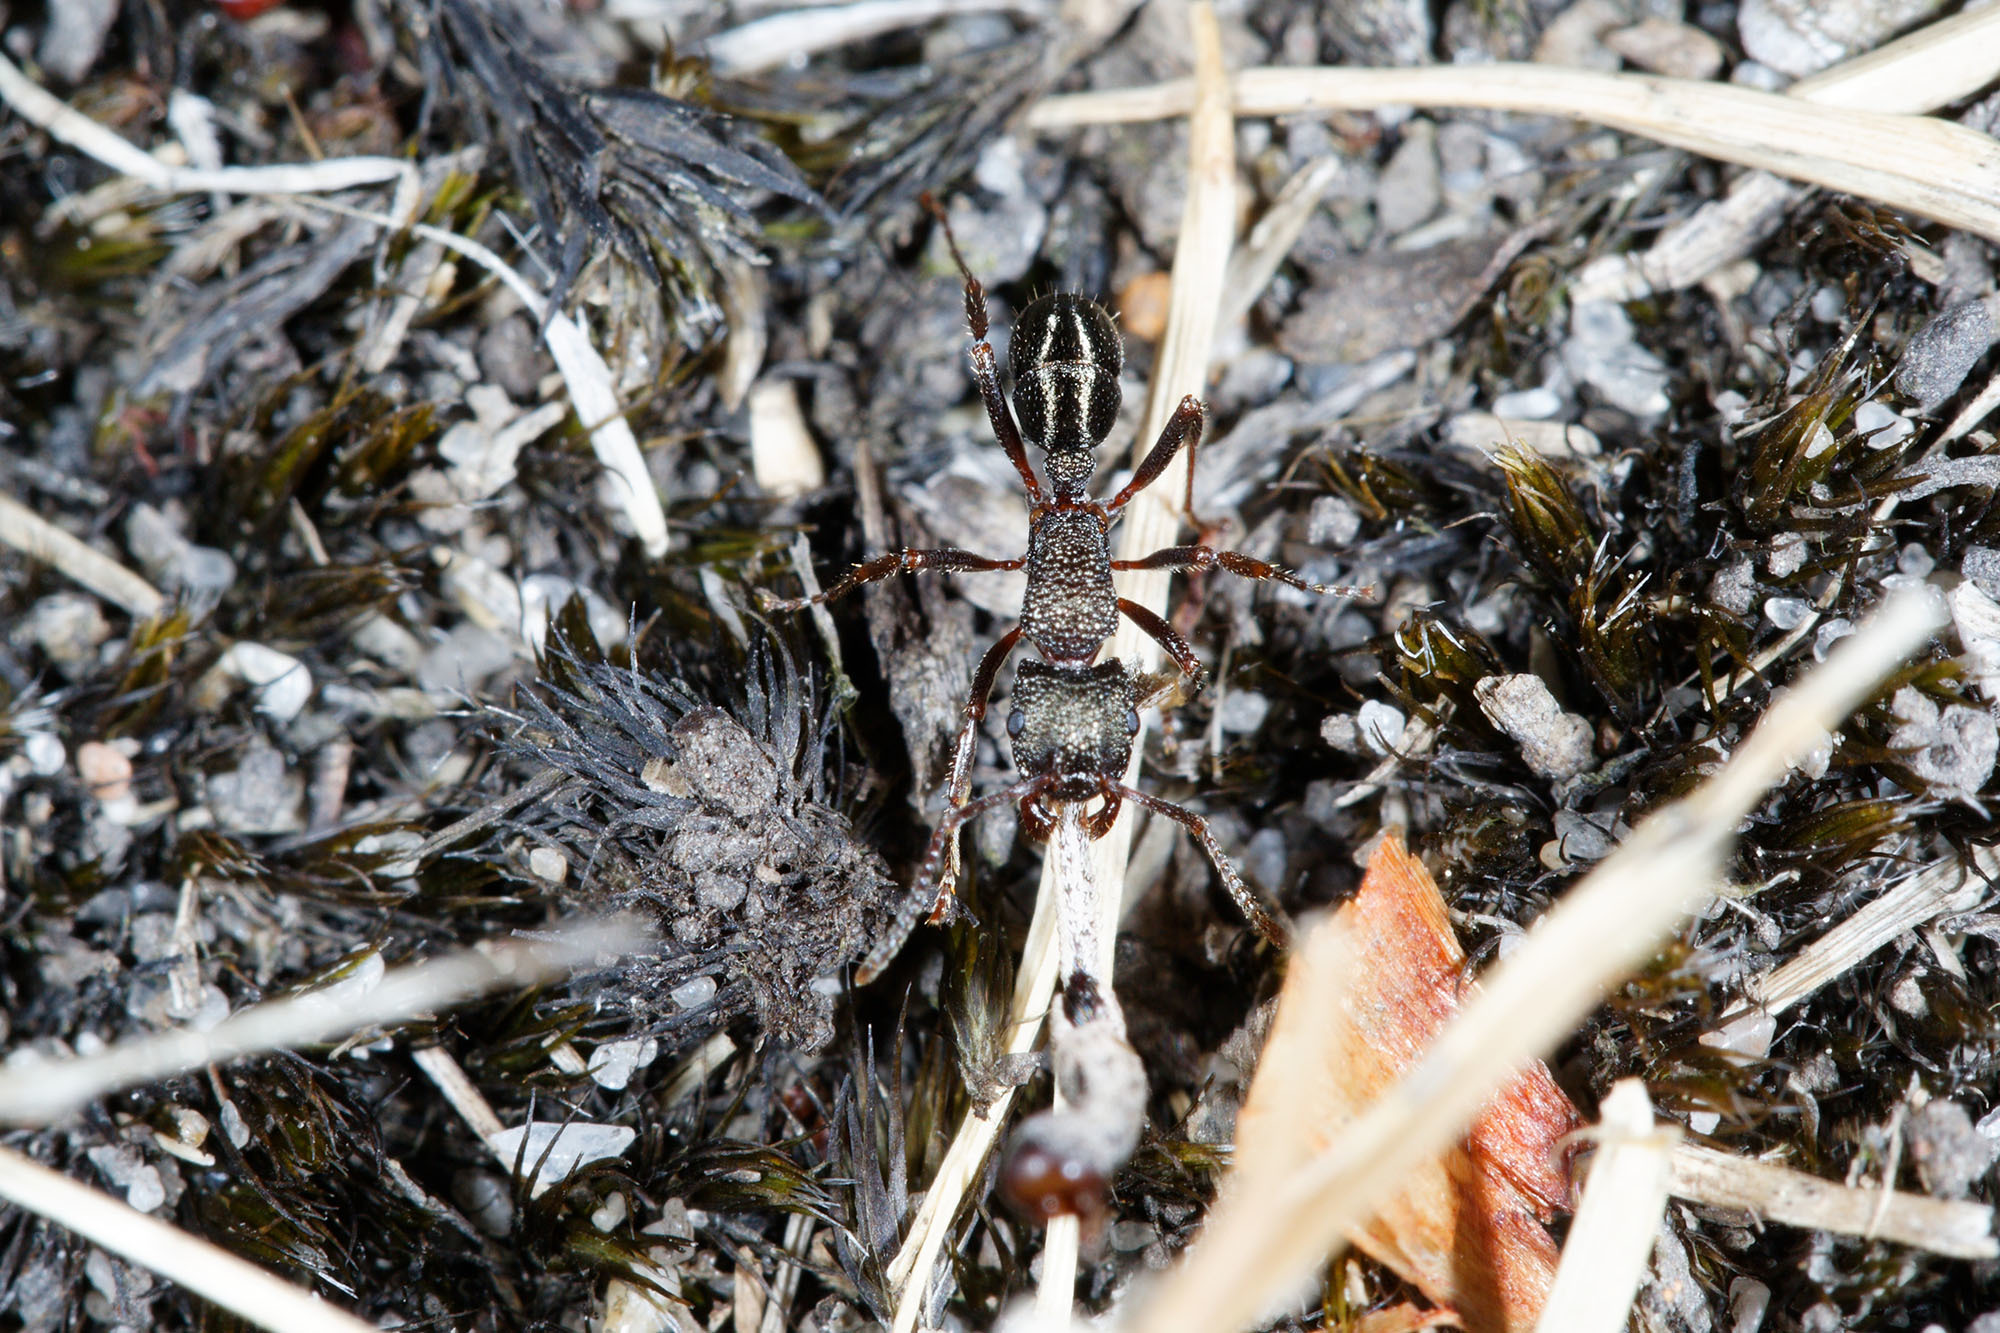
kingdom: Animalia
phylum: Arthropoda
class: Insecta
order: Hymenoptera
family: Formicidae
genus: Rhytidoponera
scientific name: Rhytidoponera tasmaniensis
